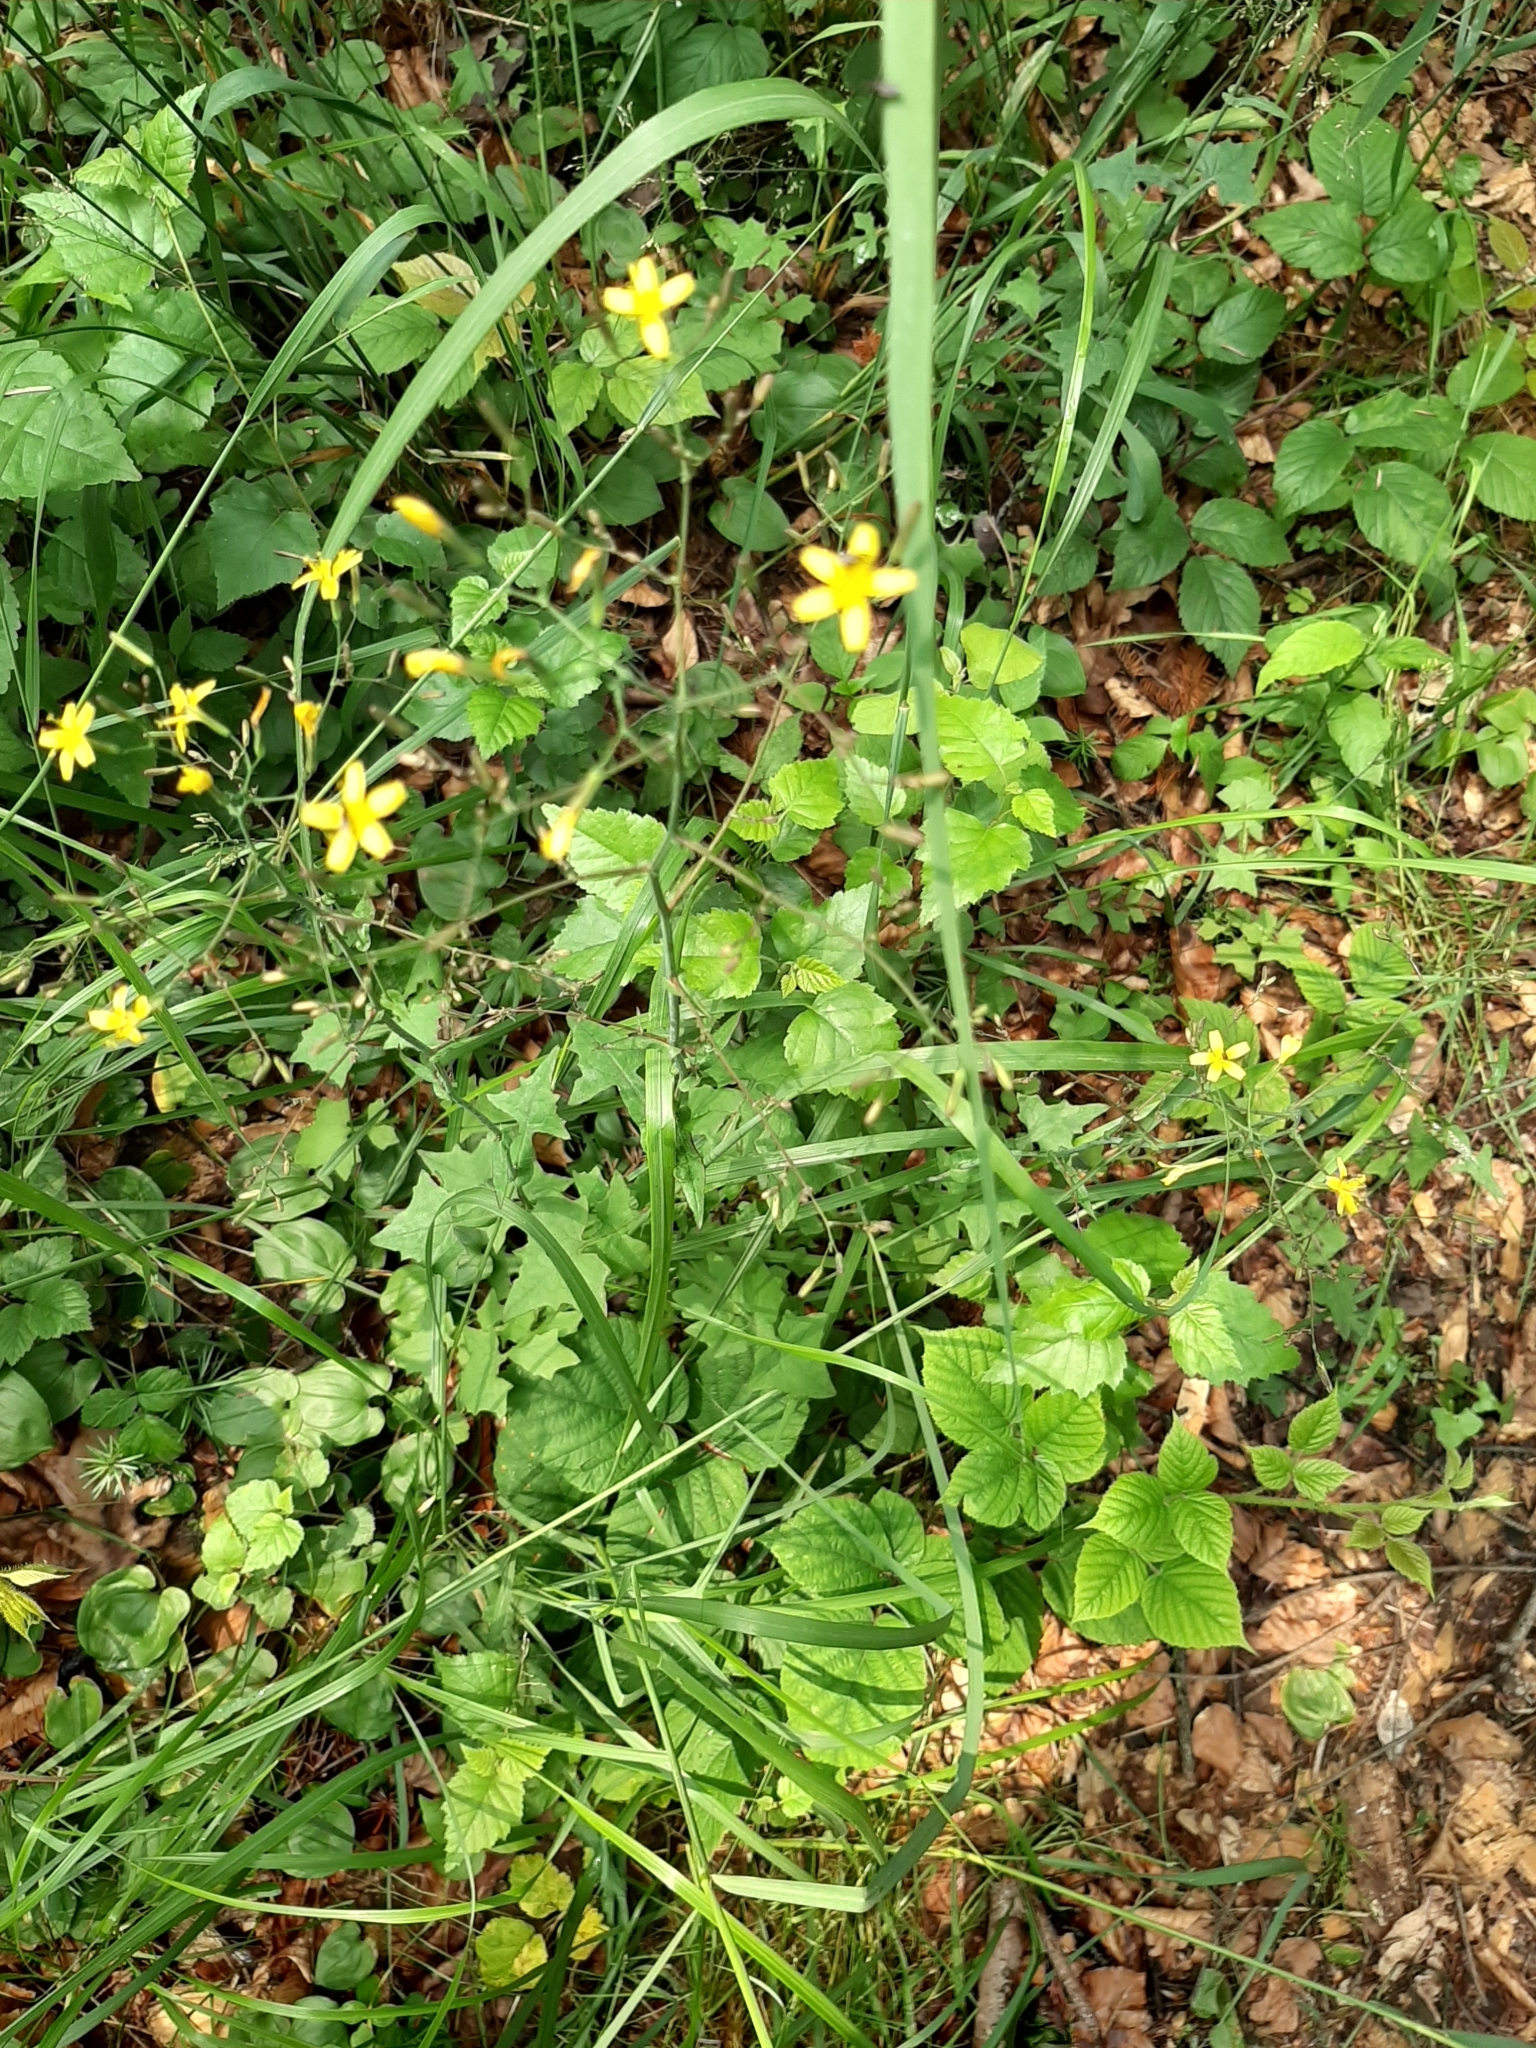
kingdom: Plantae
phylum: Tracheophyta
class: Magnoliopsida
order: Asterales
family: Asteraceae
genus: Mycelis
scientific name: Mycelis muralis
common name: Wall lettuce
